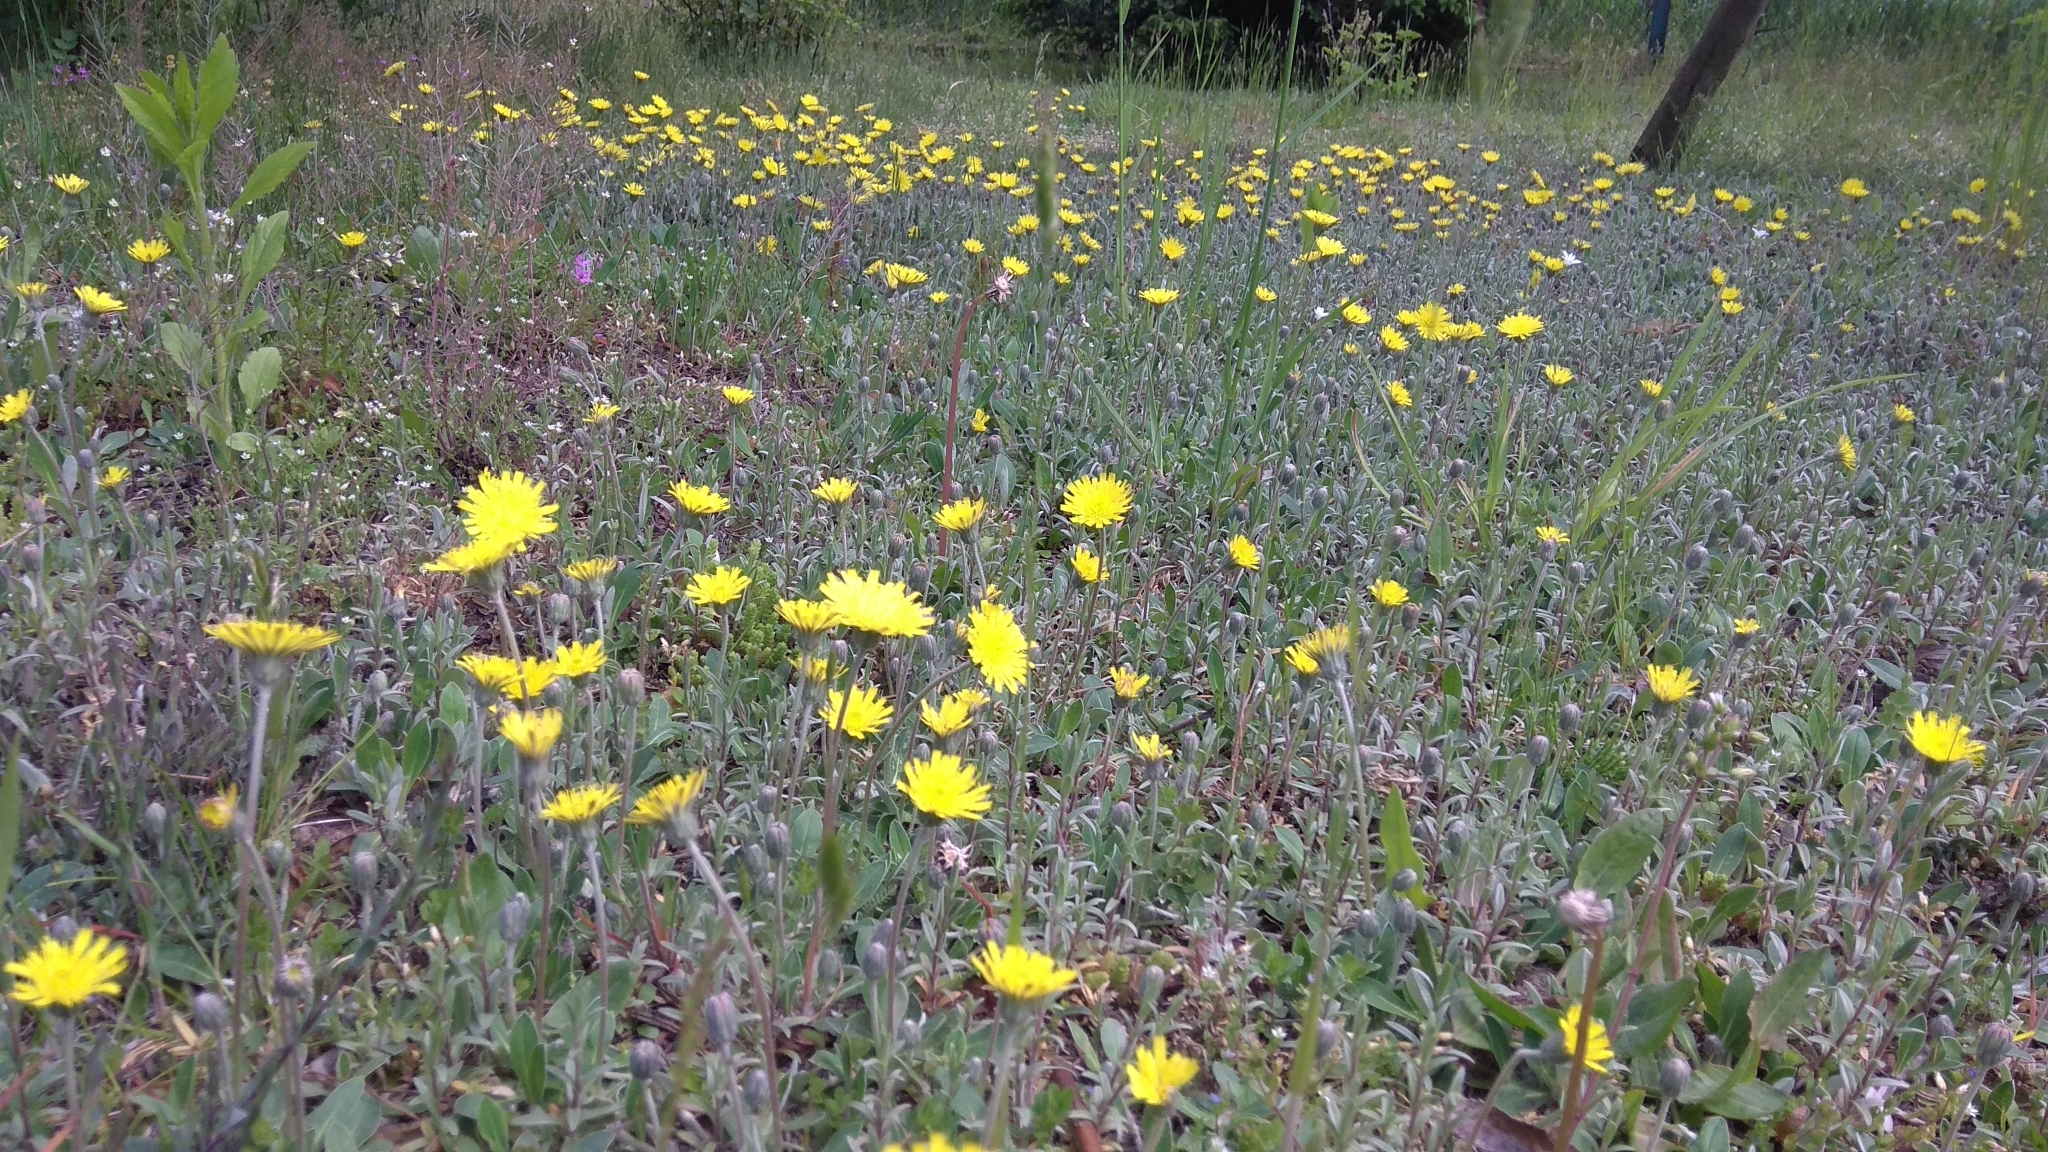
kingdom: Plantae
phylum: Tracheophyta
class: Magnoliopsida
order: Asterales
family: Asteraceae
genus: Pilosella
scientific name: Pilosella officinarum
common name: Mouse-ear hawkweed
